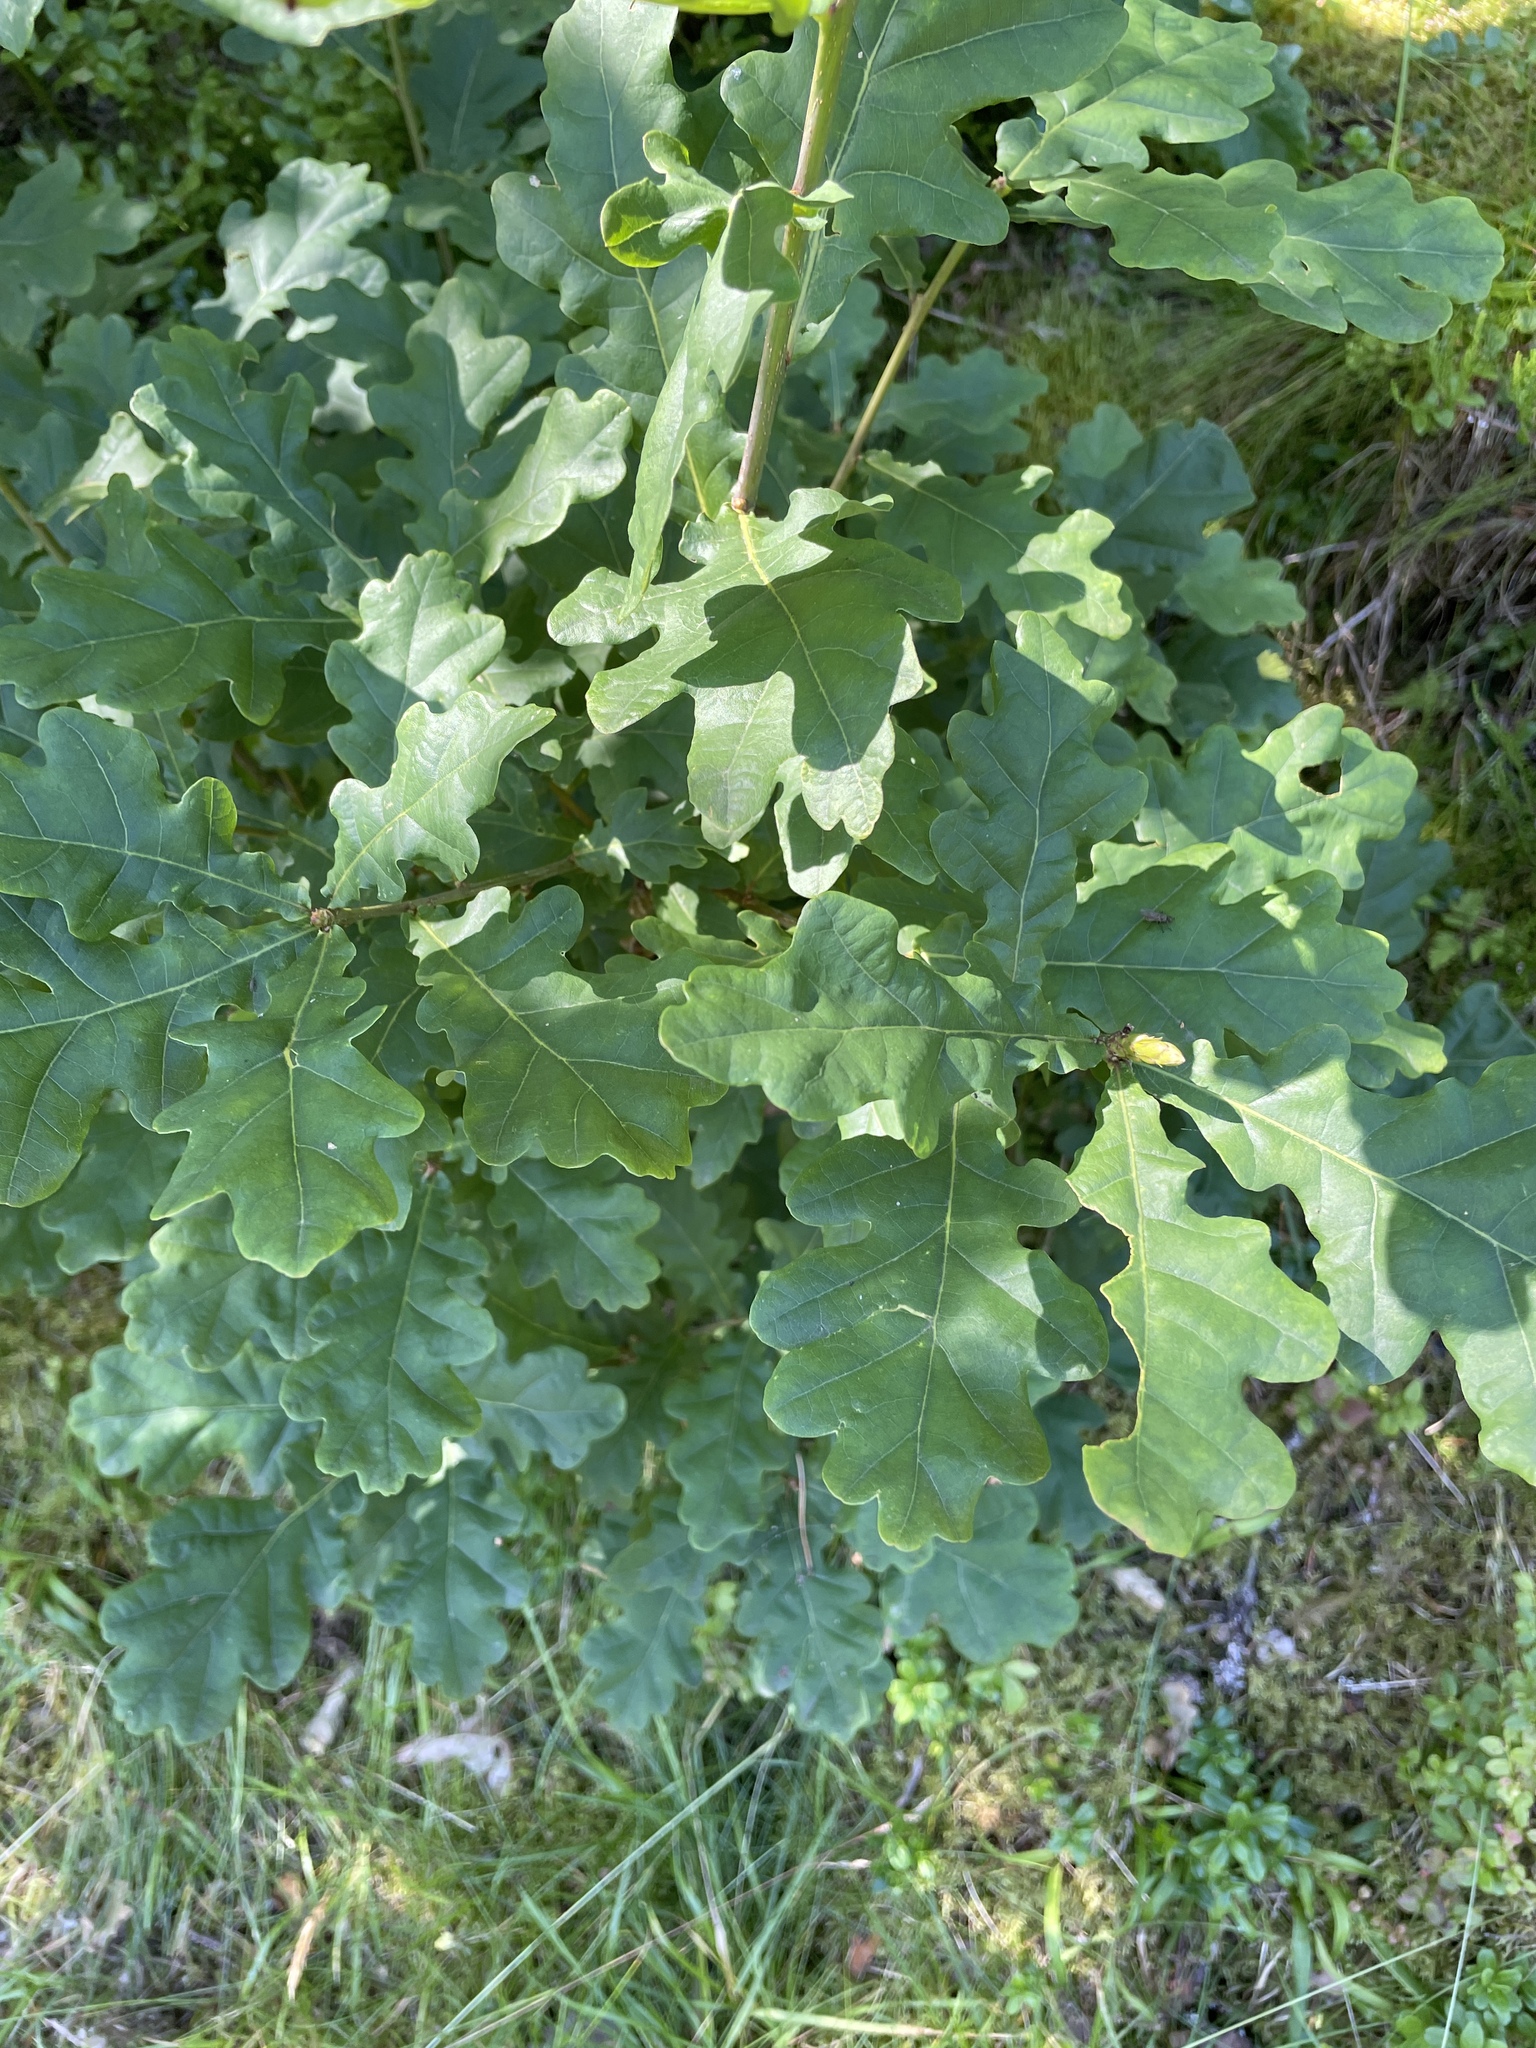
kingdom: Plantae
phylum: Tracheophyta
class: Magnoliopsida
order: Fagales
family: Fagaceae
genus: Quercus
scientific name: Quercus robur
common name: Pedunculate oak
